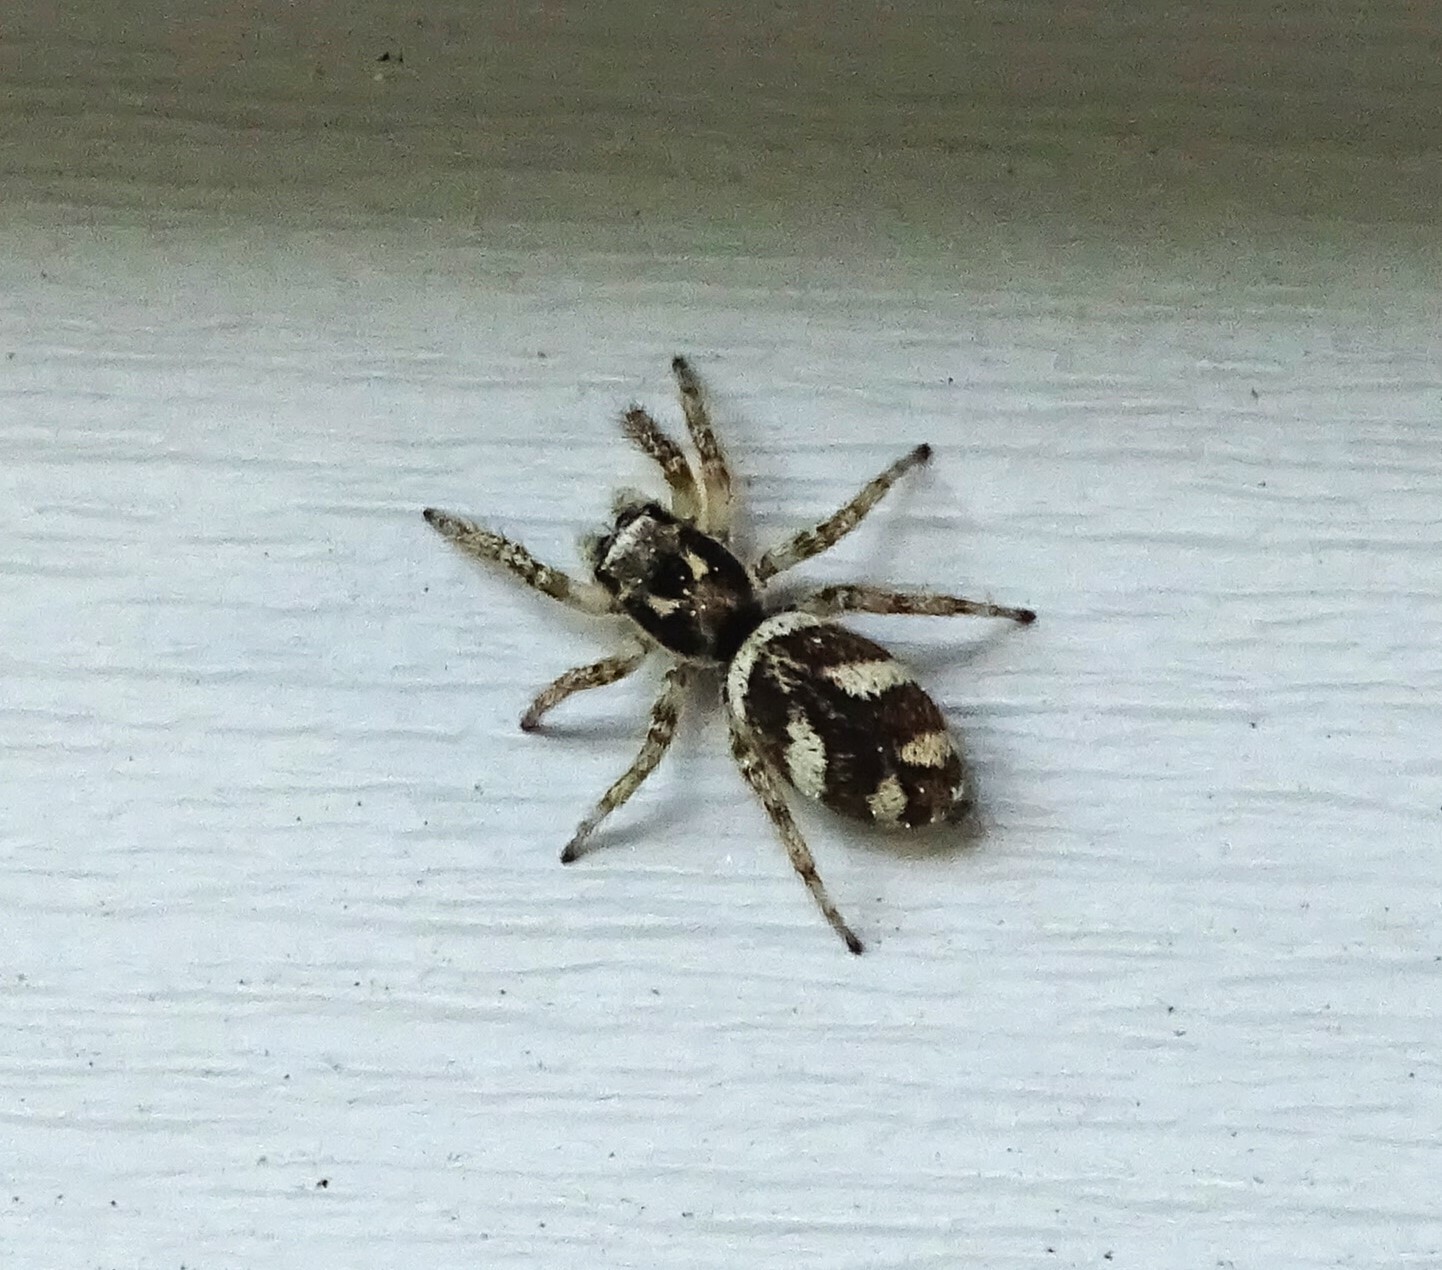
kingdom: Animalia
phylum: Arthropoda
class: Arachnida
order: Araneae
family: Salticidae
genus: Salticus
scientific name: Salticus scenicus
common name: Zebra jumper
